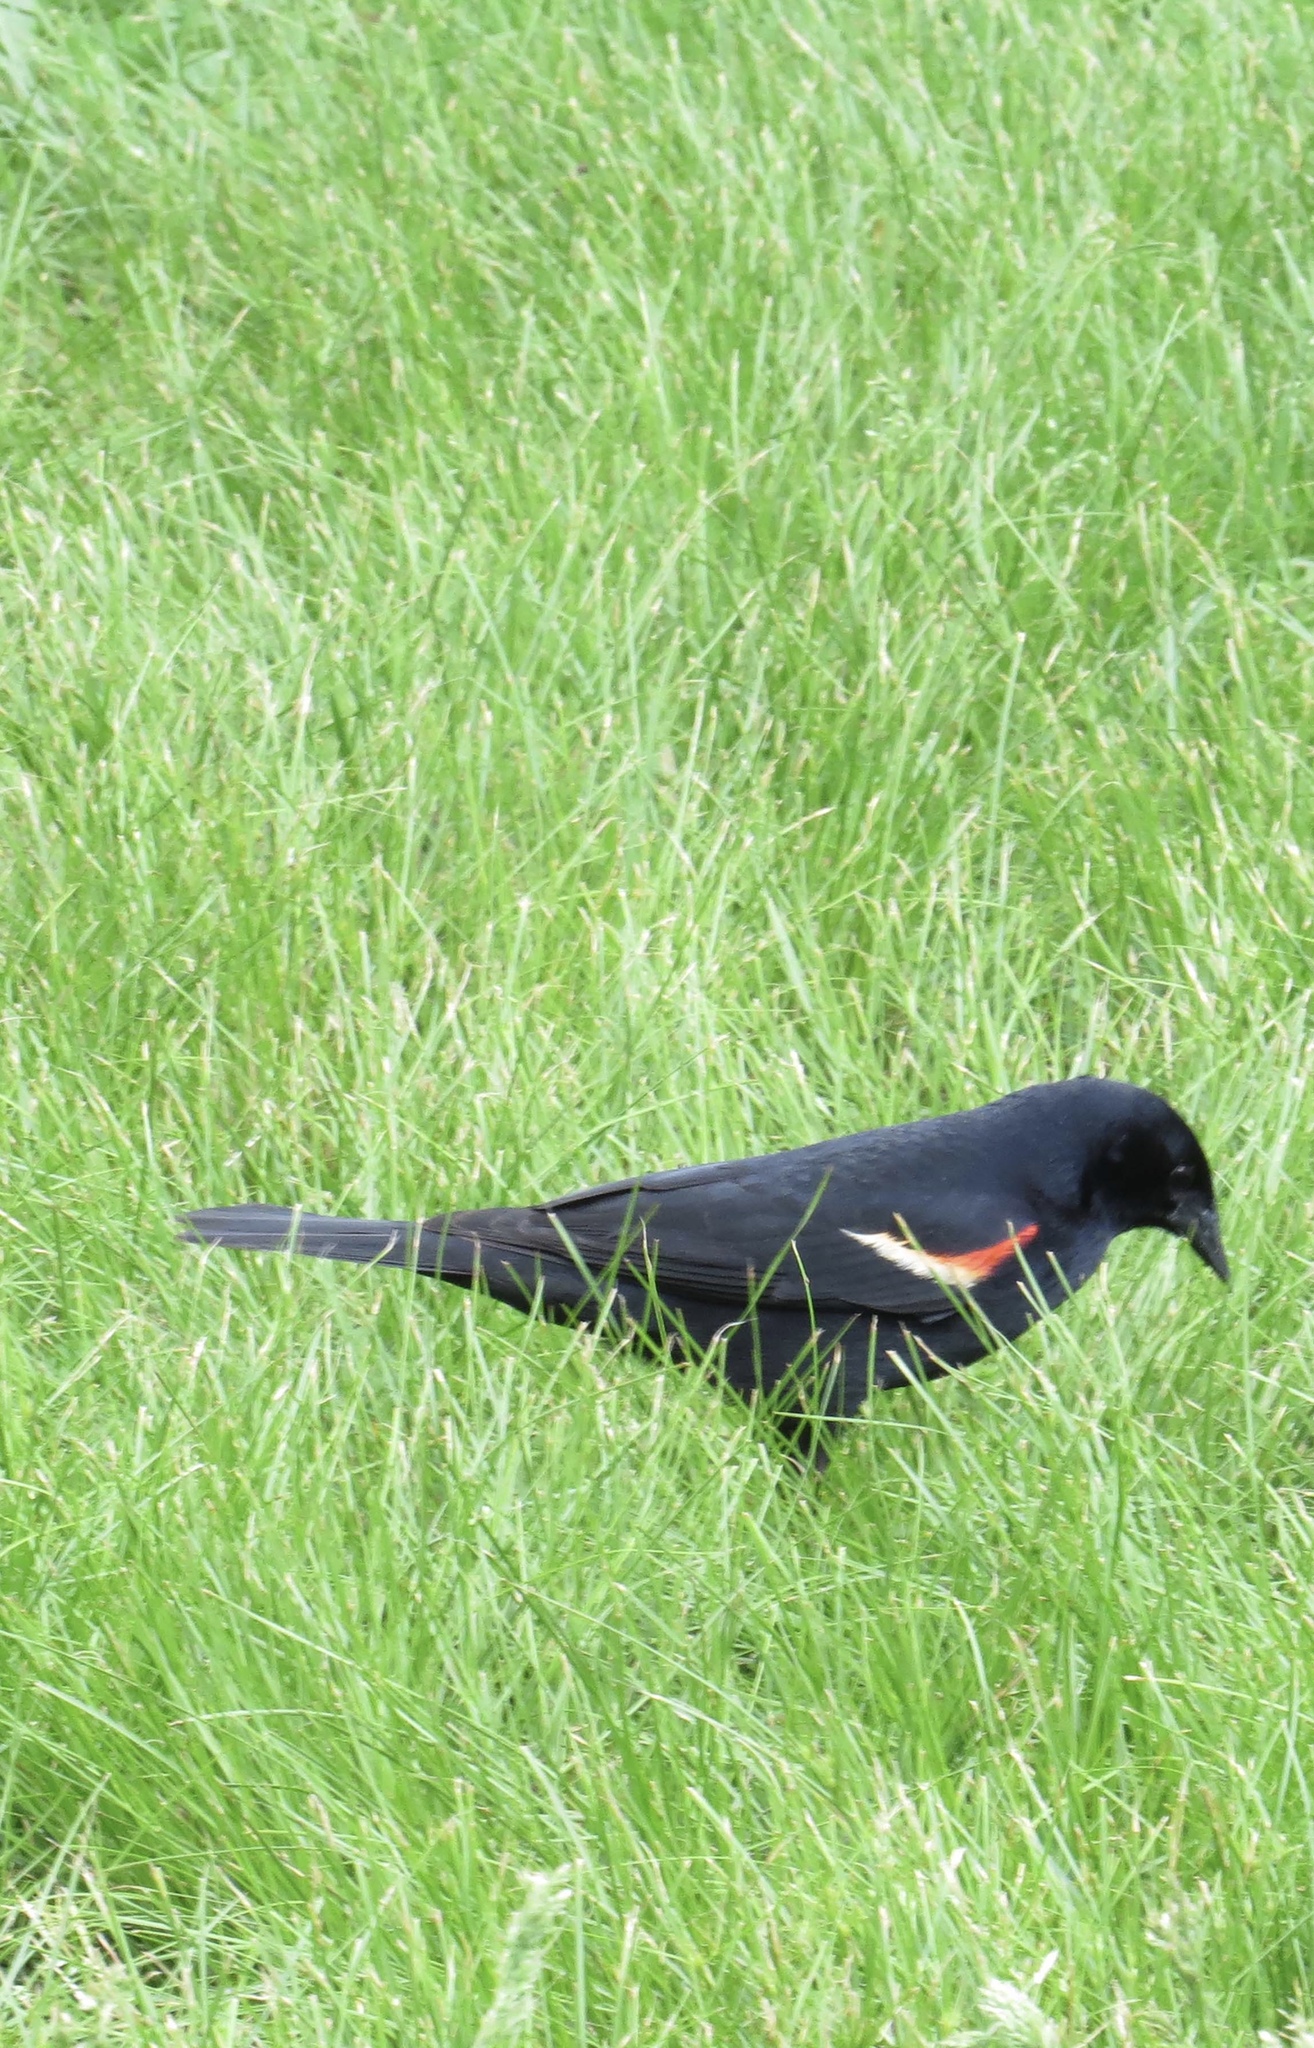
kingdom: Animalia
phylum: Chordata
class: Aves
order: Passeriformes
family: Icteridae
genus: Agelaius
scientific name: Agelaius phoeniceus
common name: Red-winged blackbird
